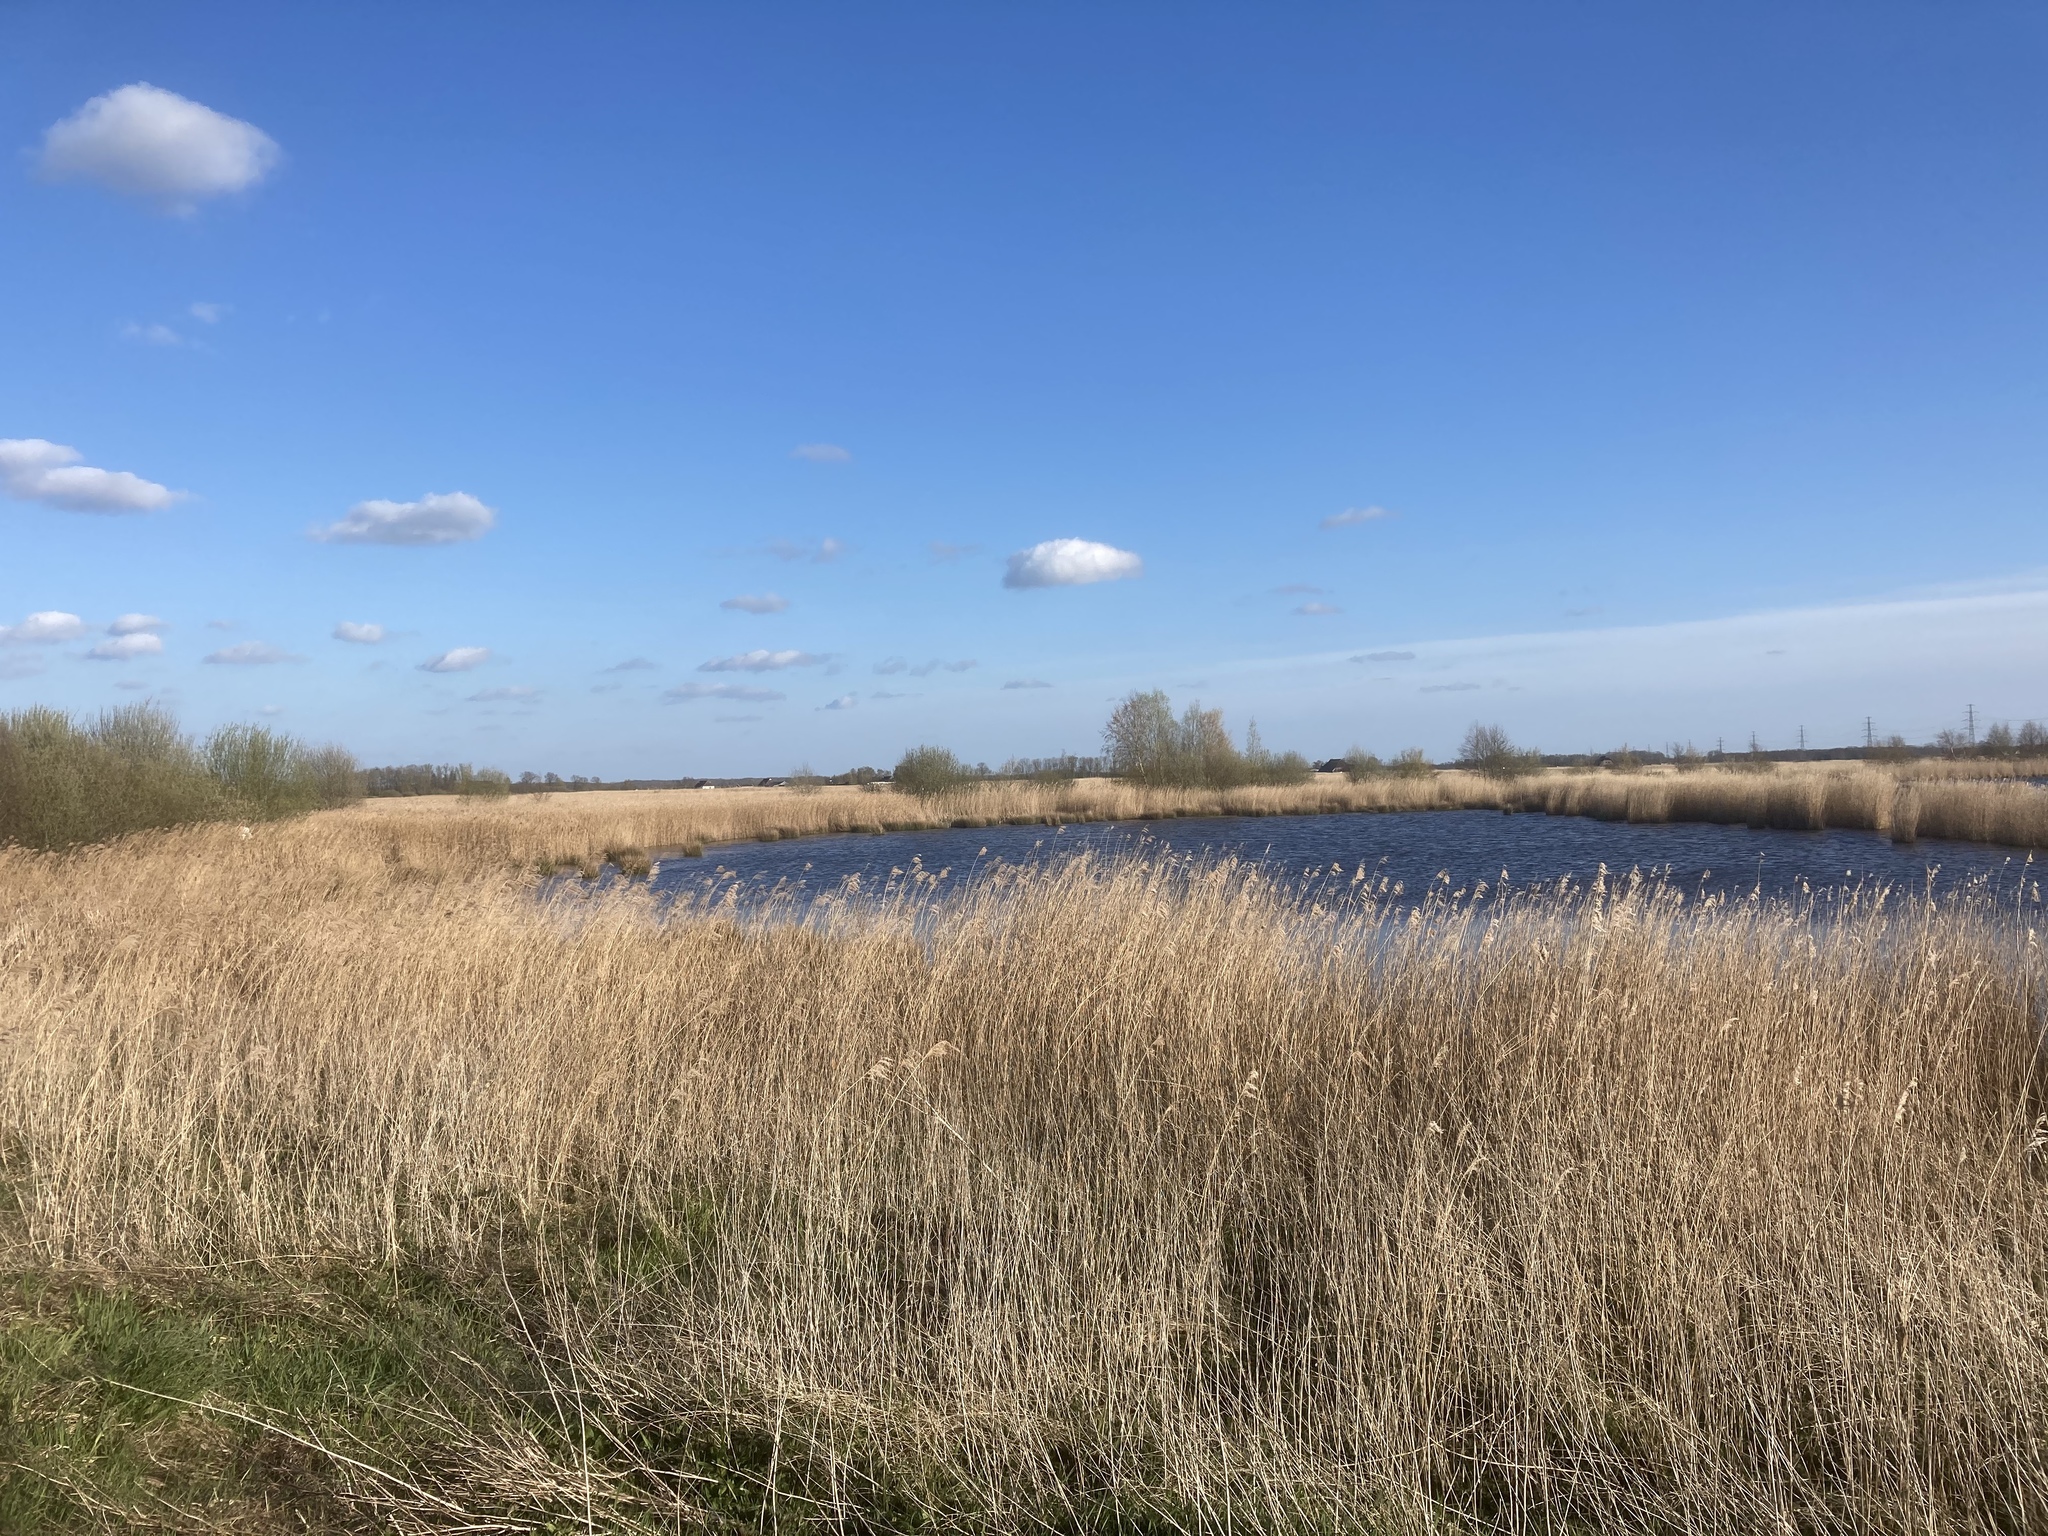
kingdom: Plantae
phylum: Tracheophyta
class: Liliopsida
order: Poales
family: Poaceae
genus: Phragmites
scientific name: Phragmites australis
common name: Common reed
